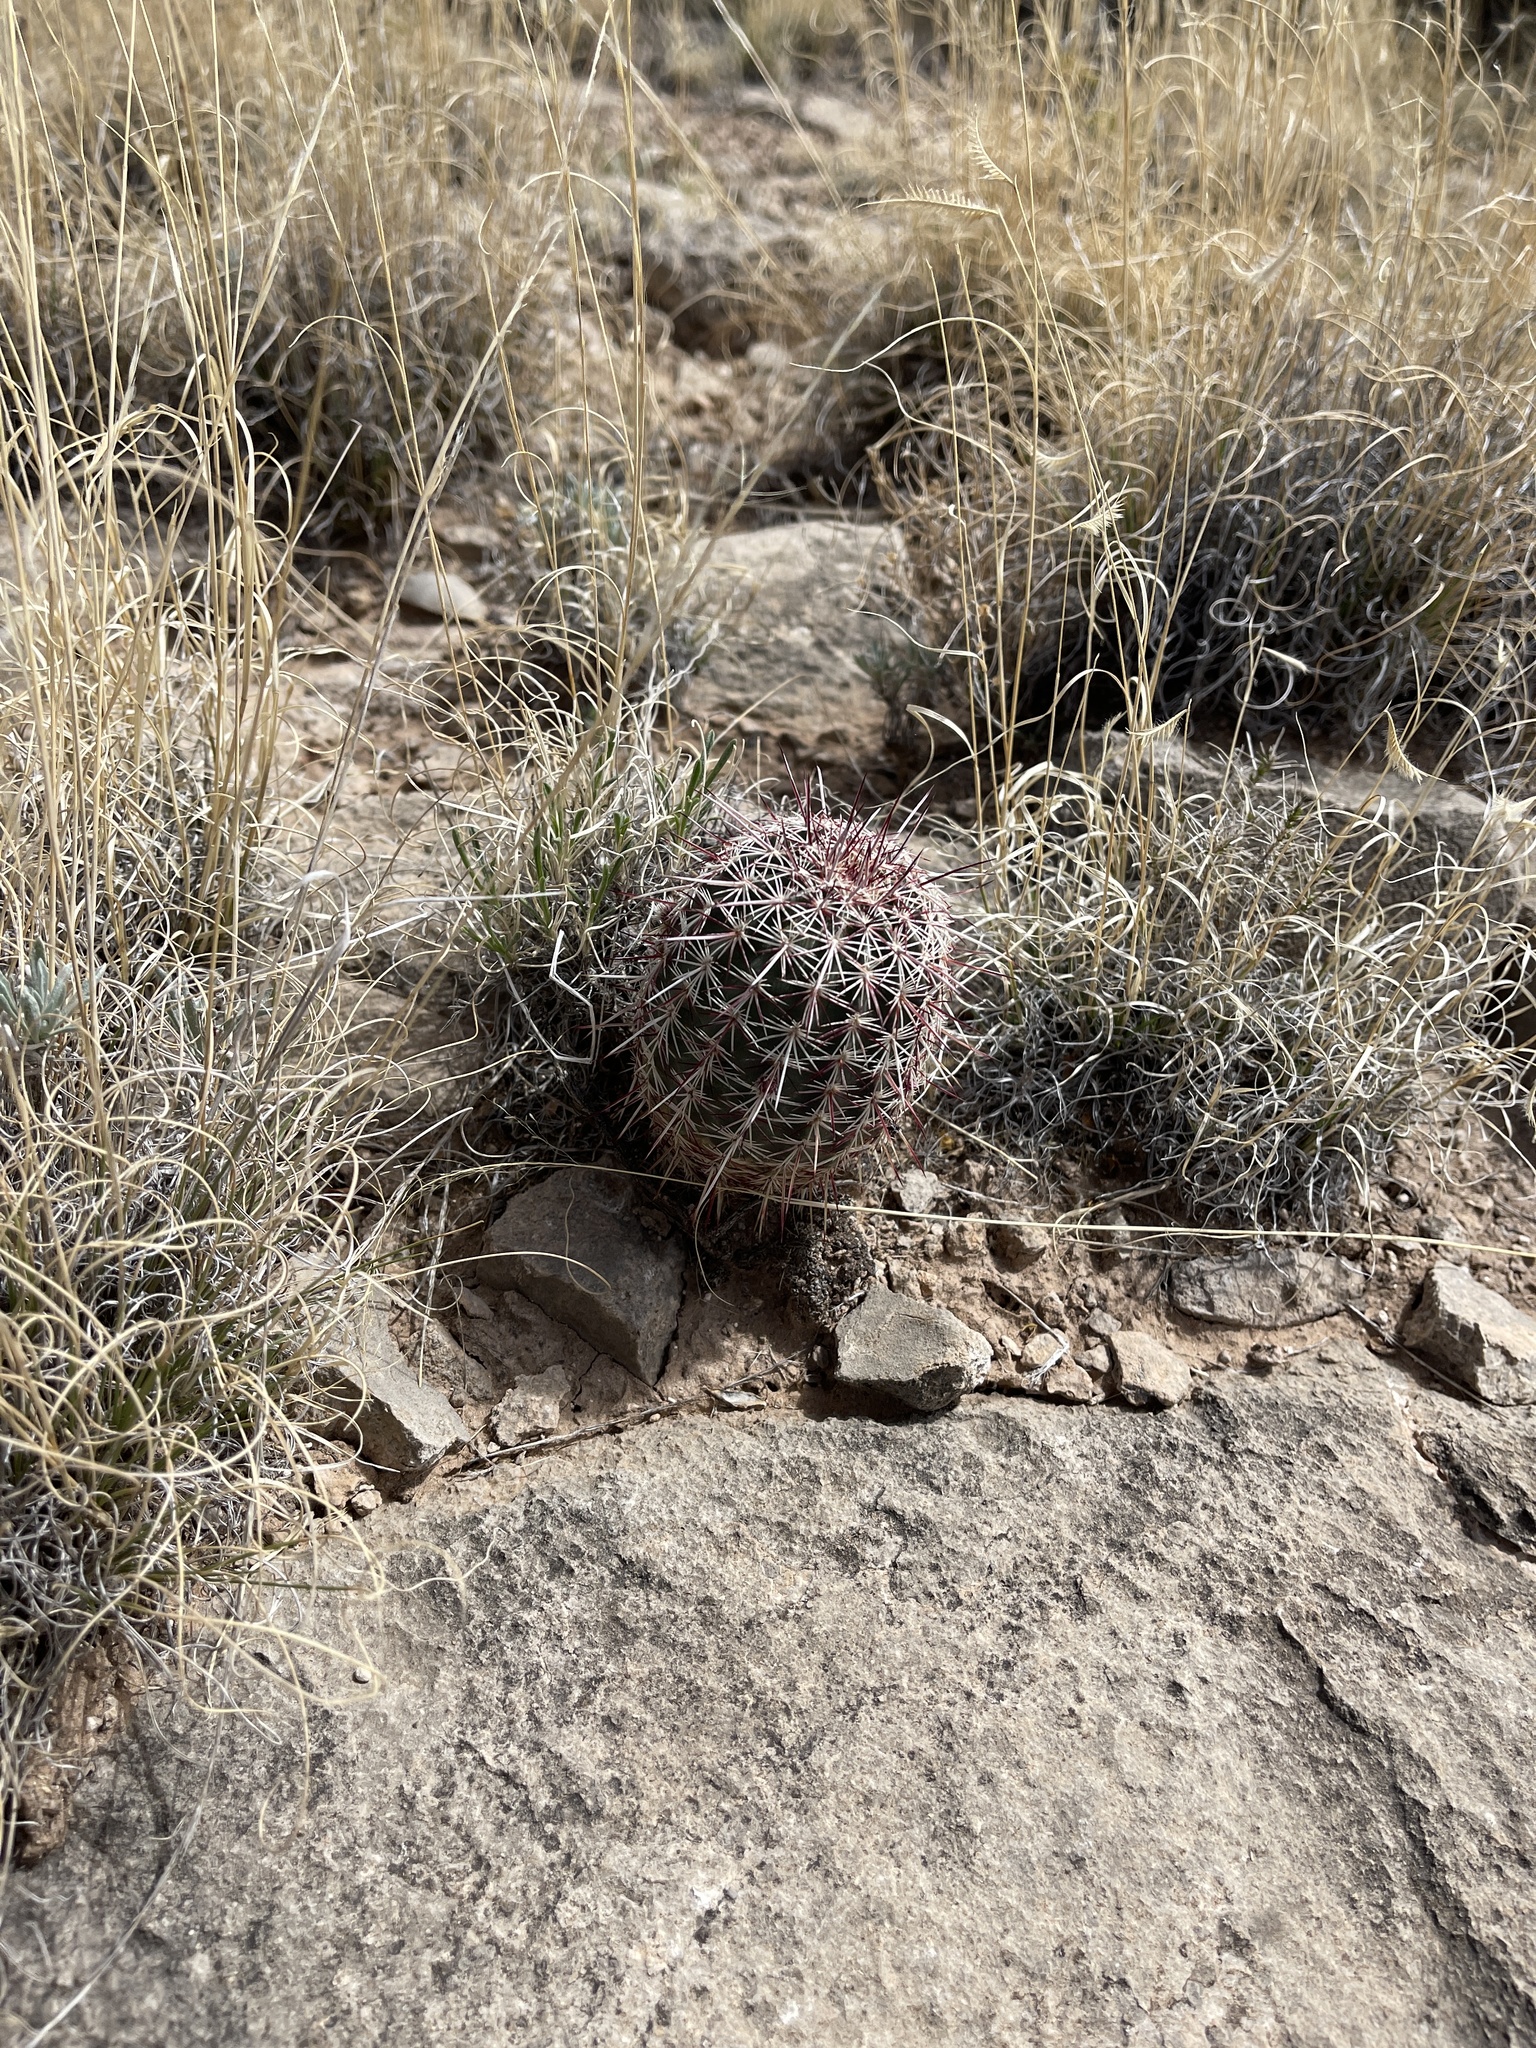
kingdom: Plantae
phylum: Tracheophyta
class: Magnoliopsida
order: Caryophyllales
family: Cactaceae
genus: Echinocereus
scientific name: Echinocereus viridiflorus
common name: Nylon hedgehog cactus
